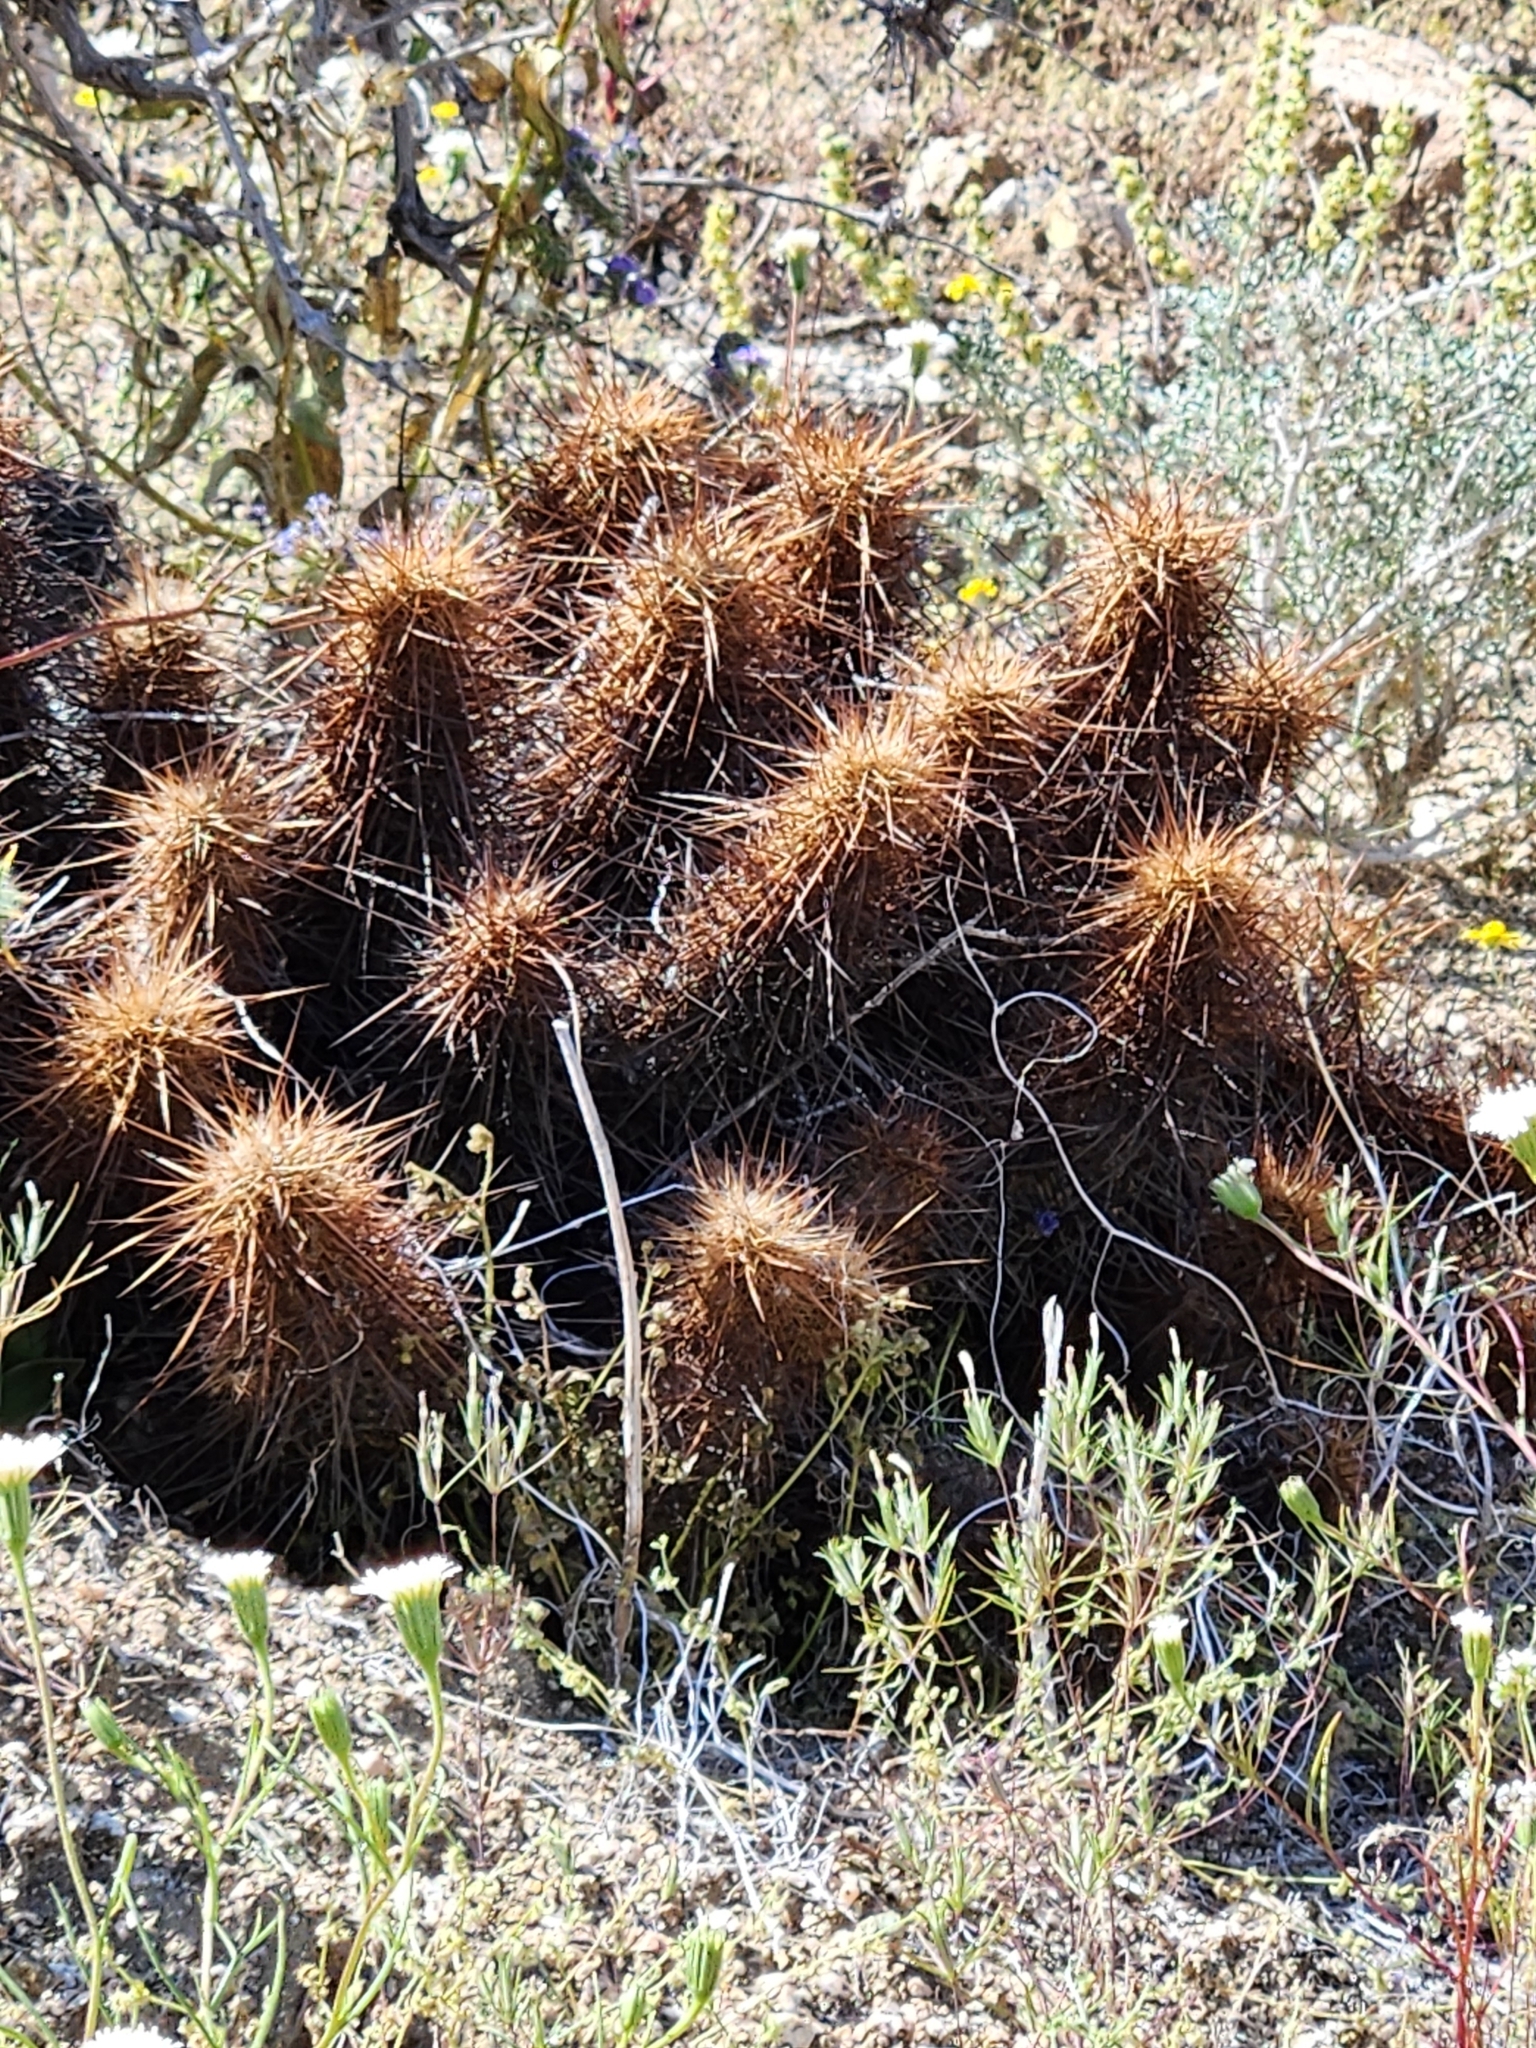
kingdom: Plantae
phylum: Tracheophyta
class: Magnoliopsida
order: Caryophyllales
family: Cactaceae
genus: Echinocereus
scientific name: Echinocereus engelmannii
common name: Engelmann's hedgehog cactus
